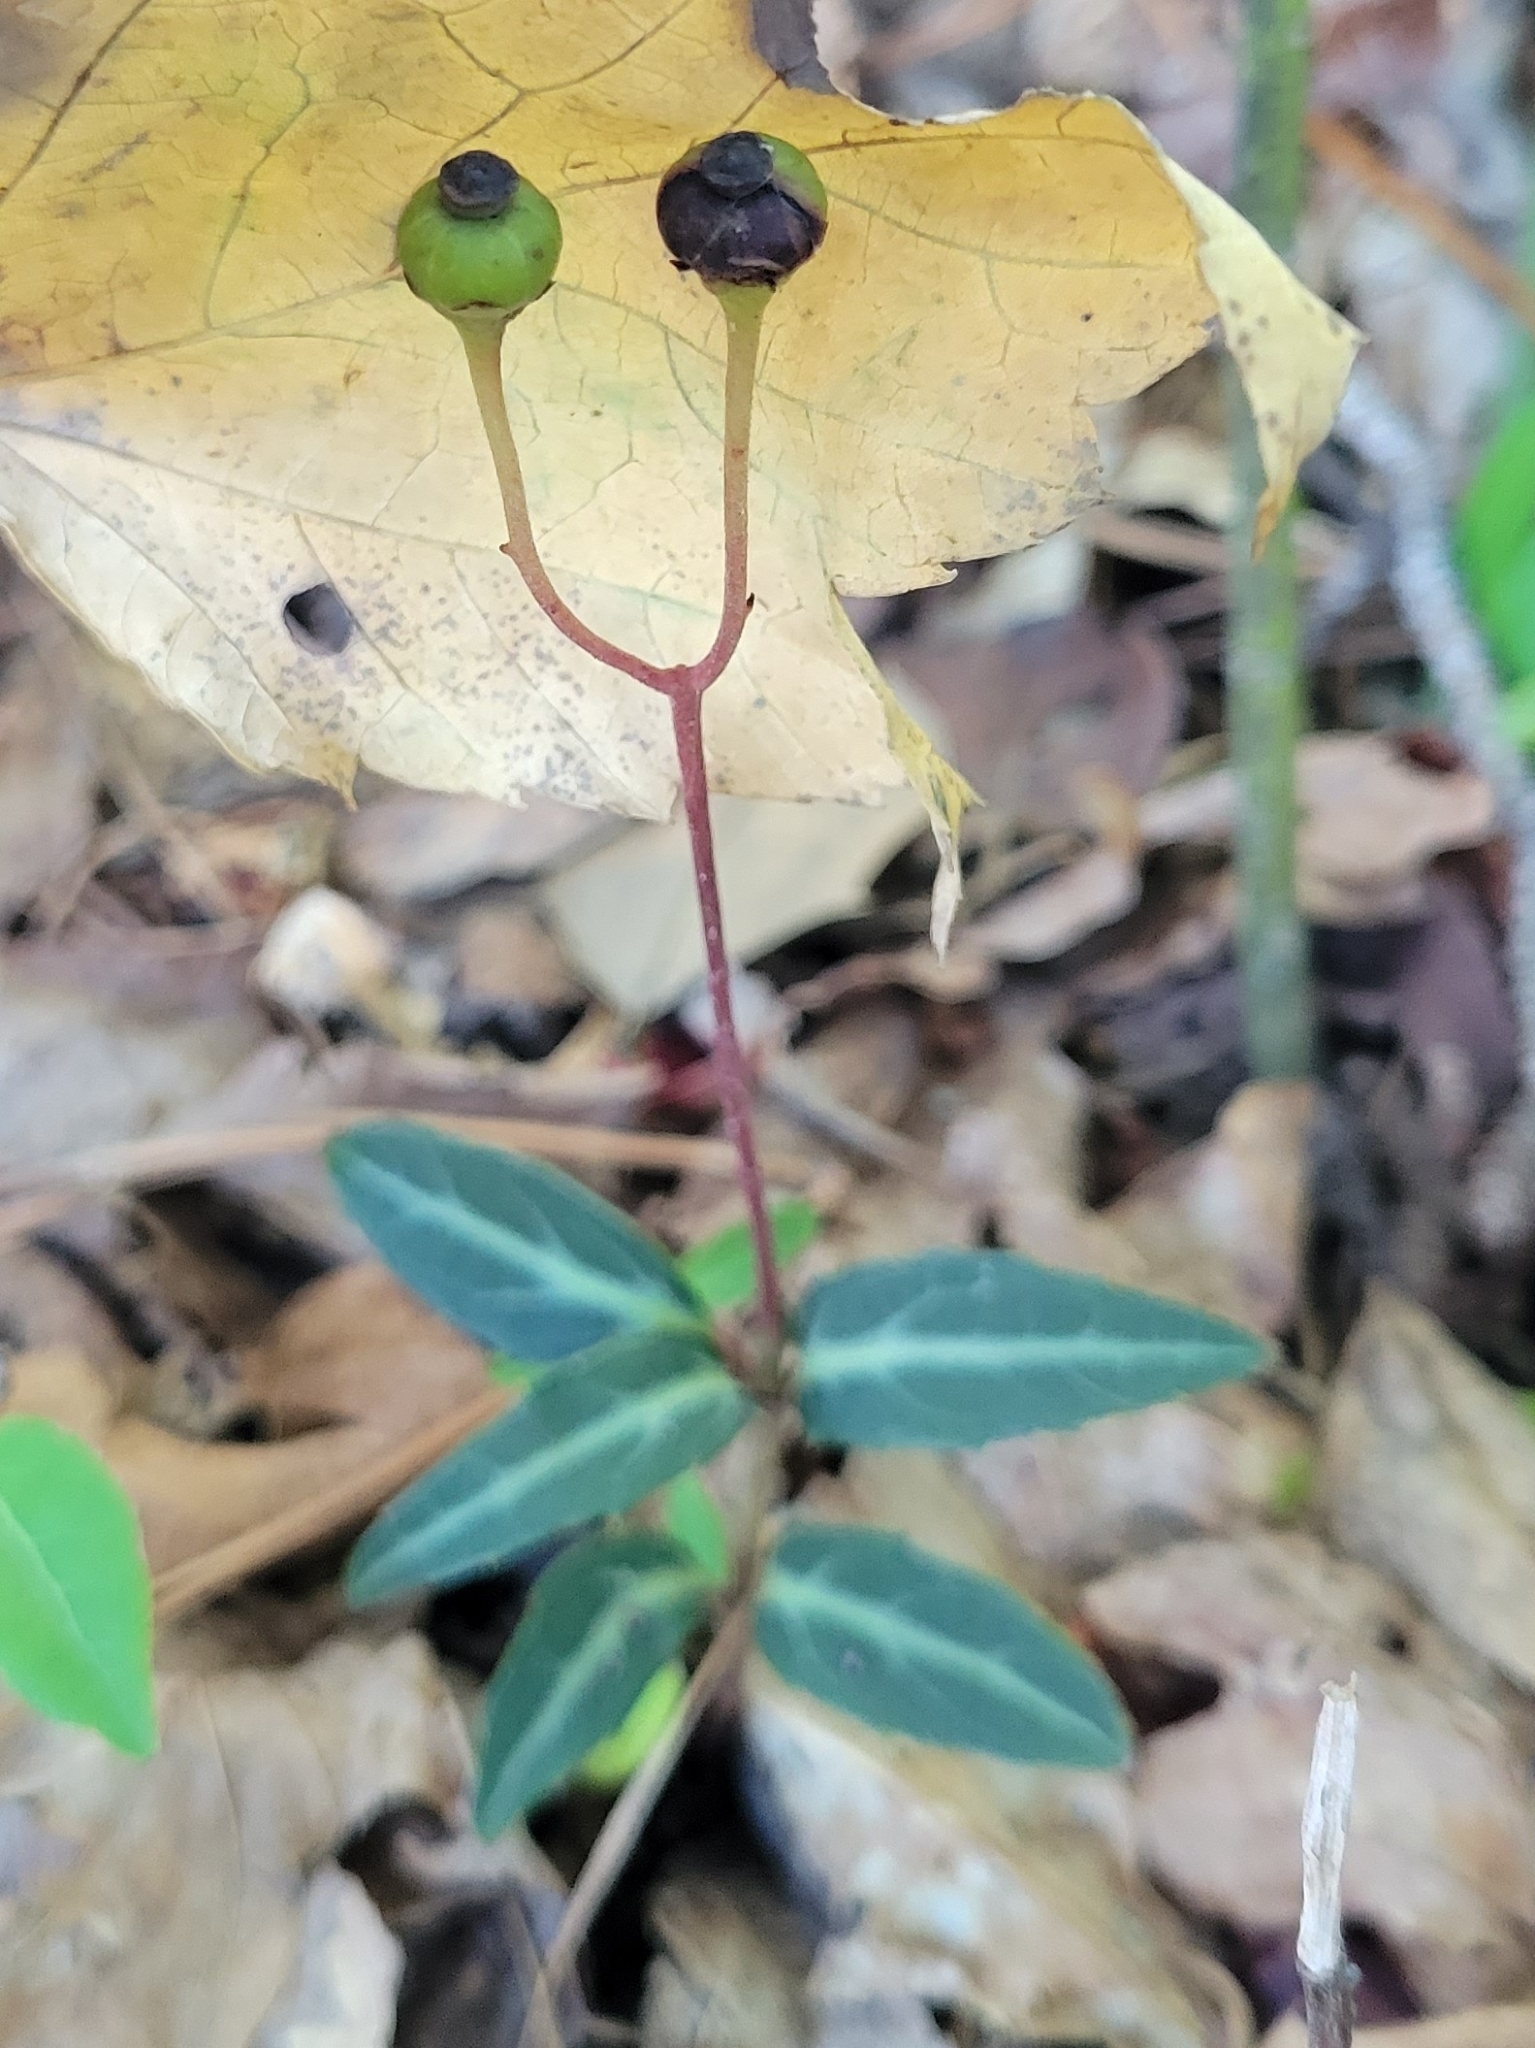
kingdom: Plantae
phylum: Tracheophyta
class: Magnoliopsida
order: Ericales
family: Ericaceae
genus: Chimaphila
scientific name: Chimaphila maculata
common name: Spotted pipsissewa
